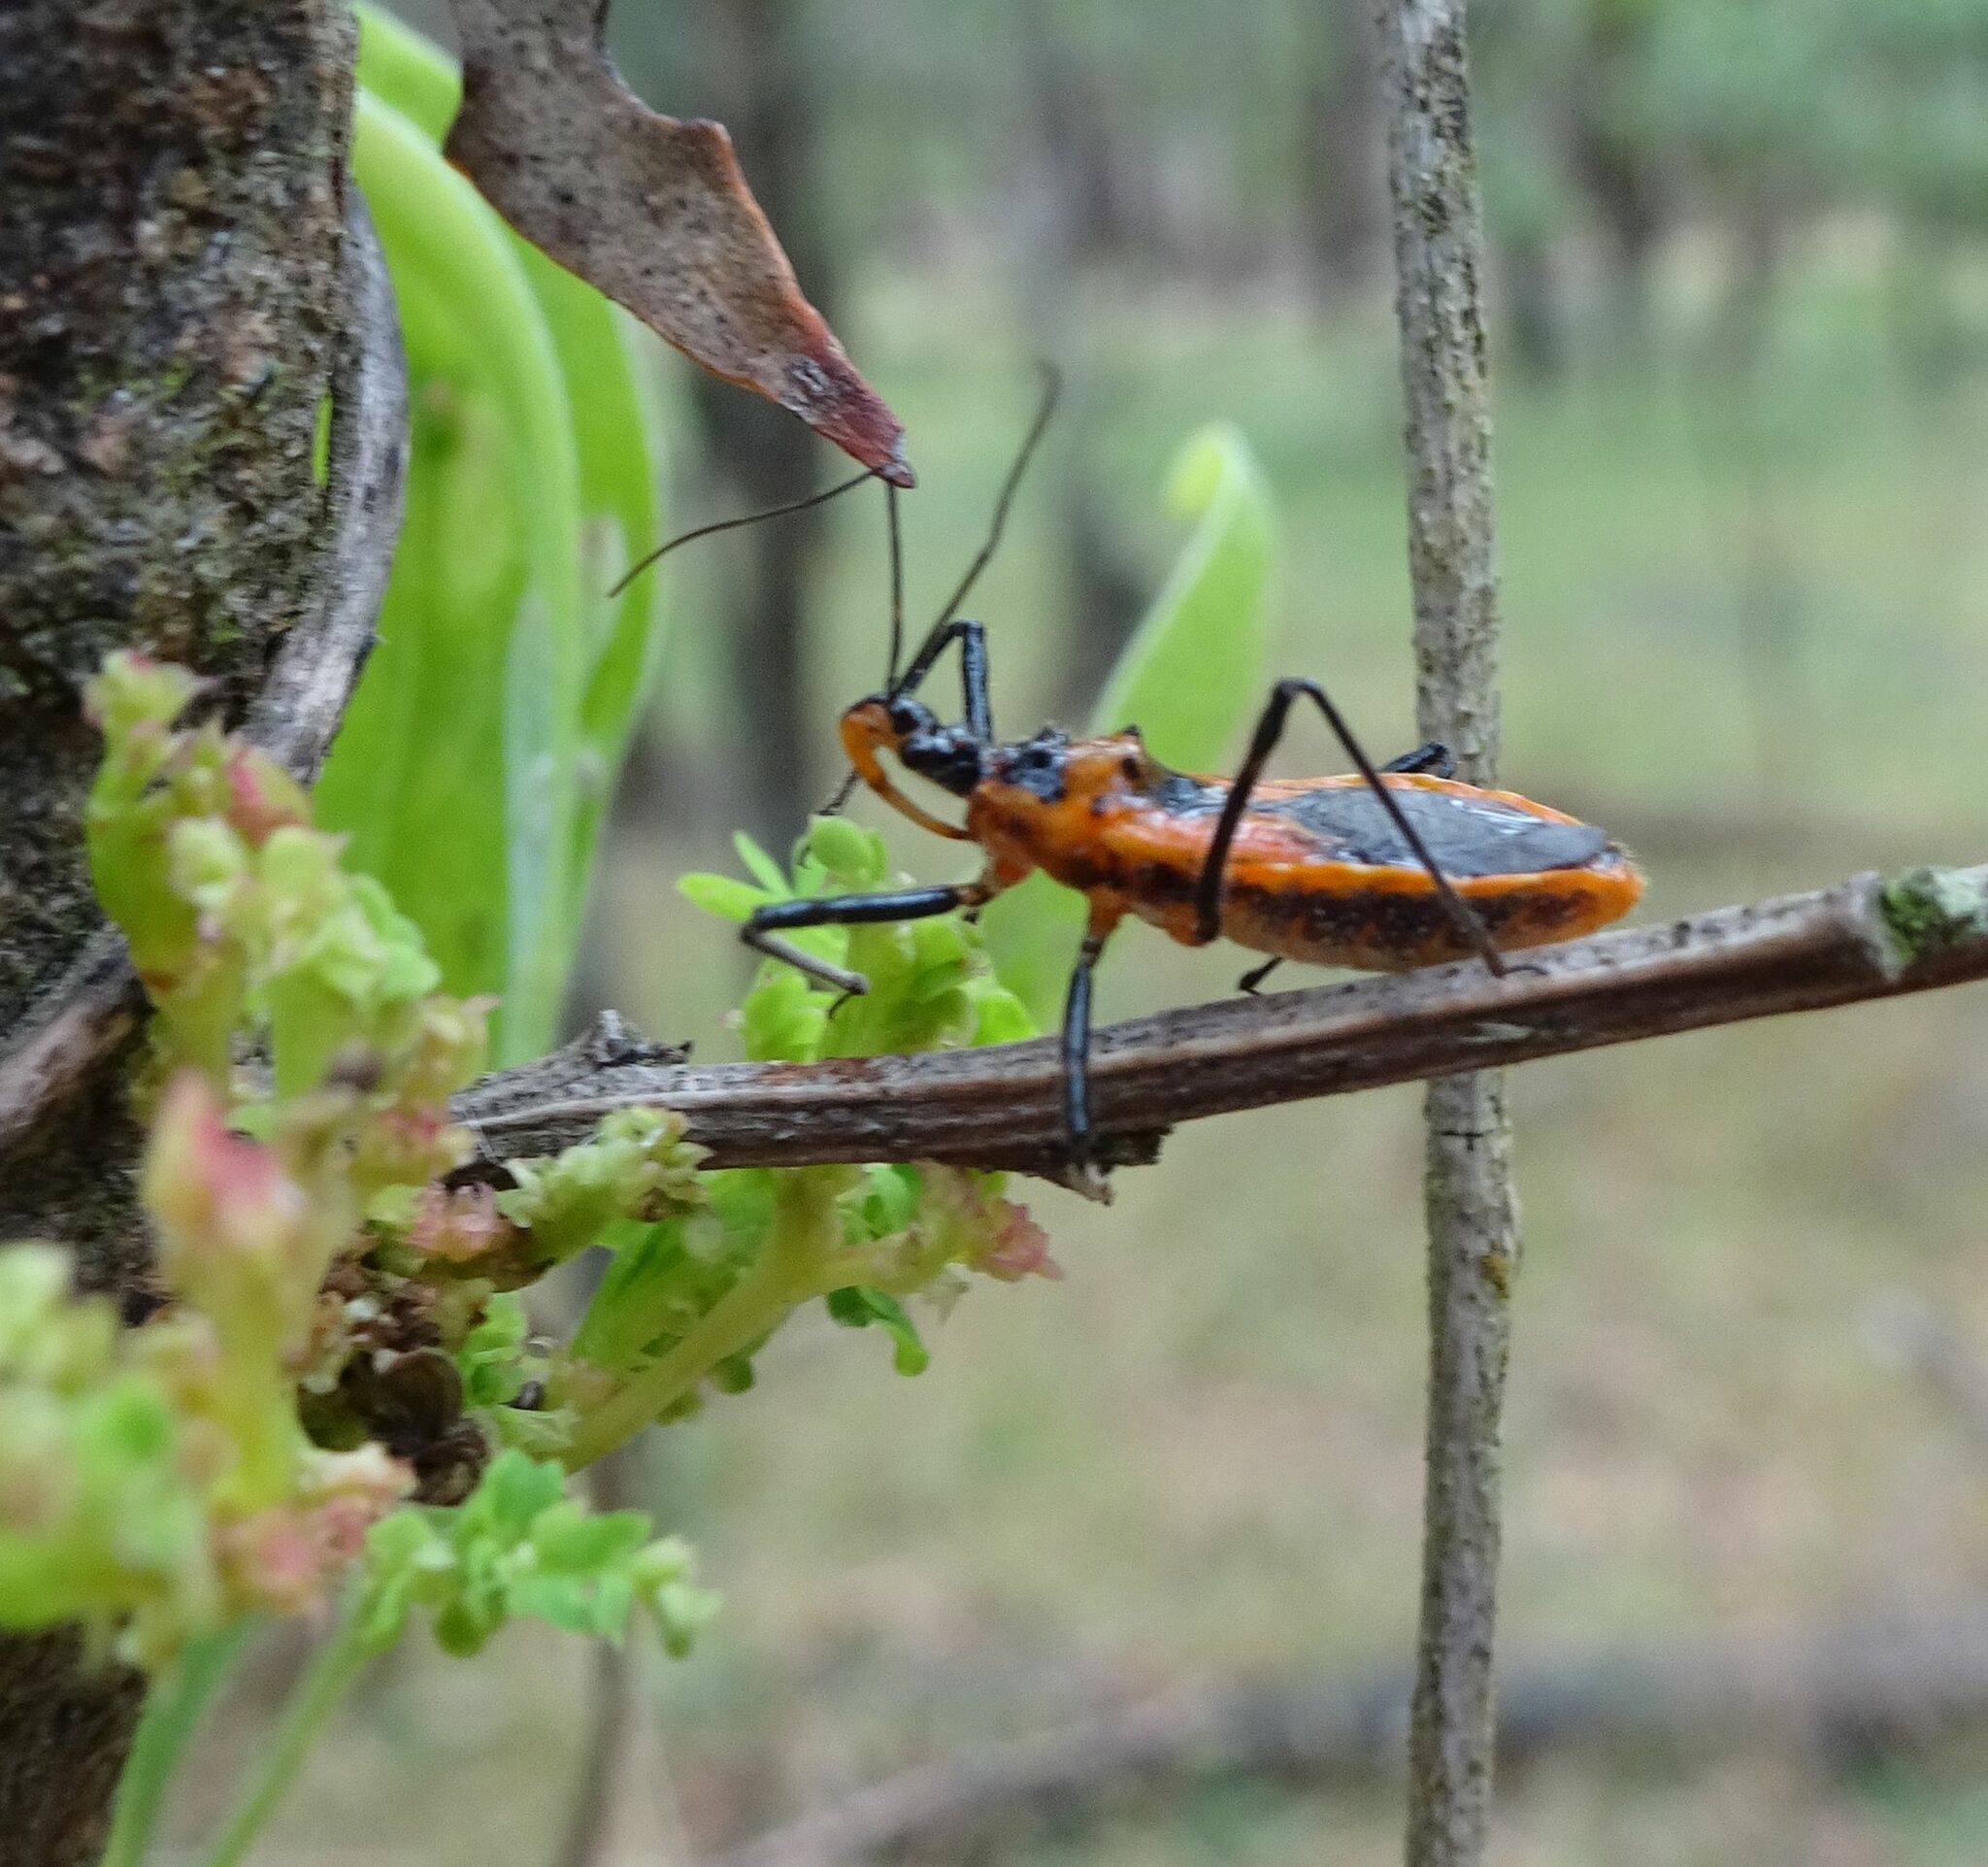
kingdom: Animalia
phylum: Arthropoda
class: Insecta
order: Hemiptera
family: Reduviidae
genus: Gminatus
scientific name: Gminatus australis
